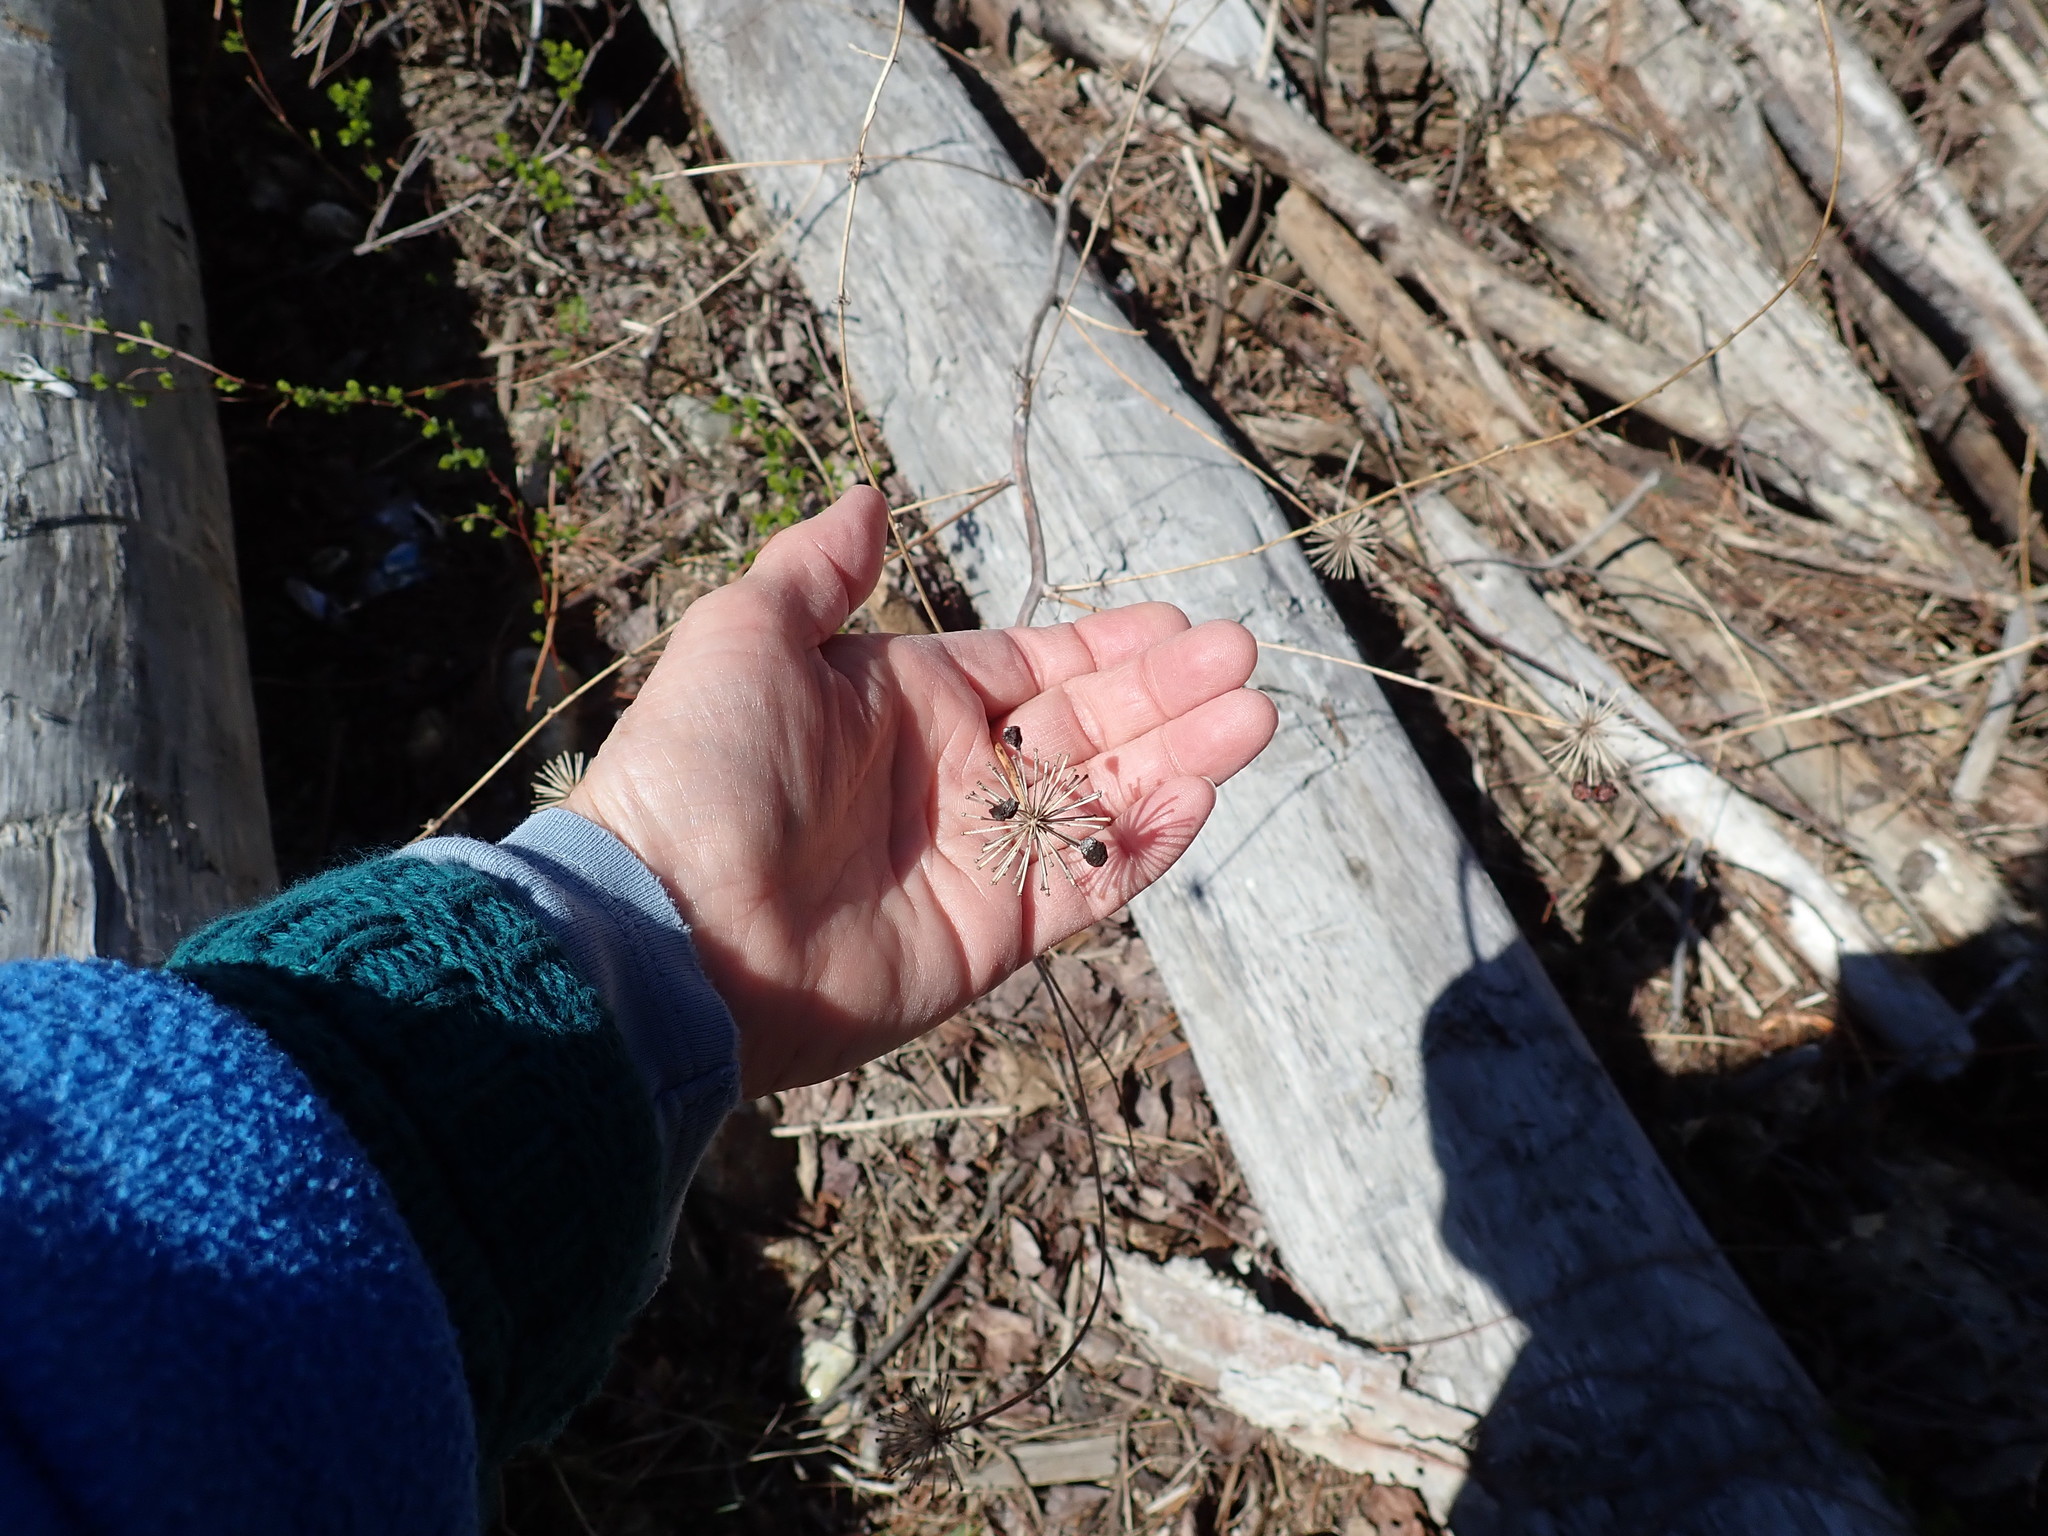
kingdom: Plantae
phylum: Tracheophyta
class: Liliopsida
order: Liliales
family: Smilacaceae
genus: Smilax
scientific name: Smilax herbacea
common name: Jacob's-ladder
